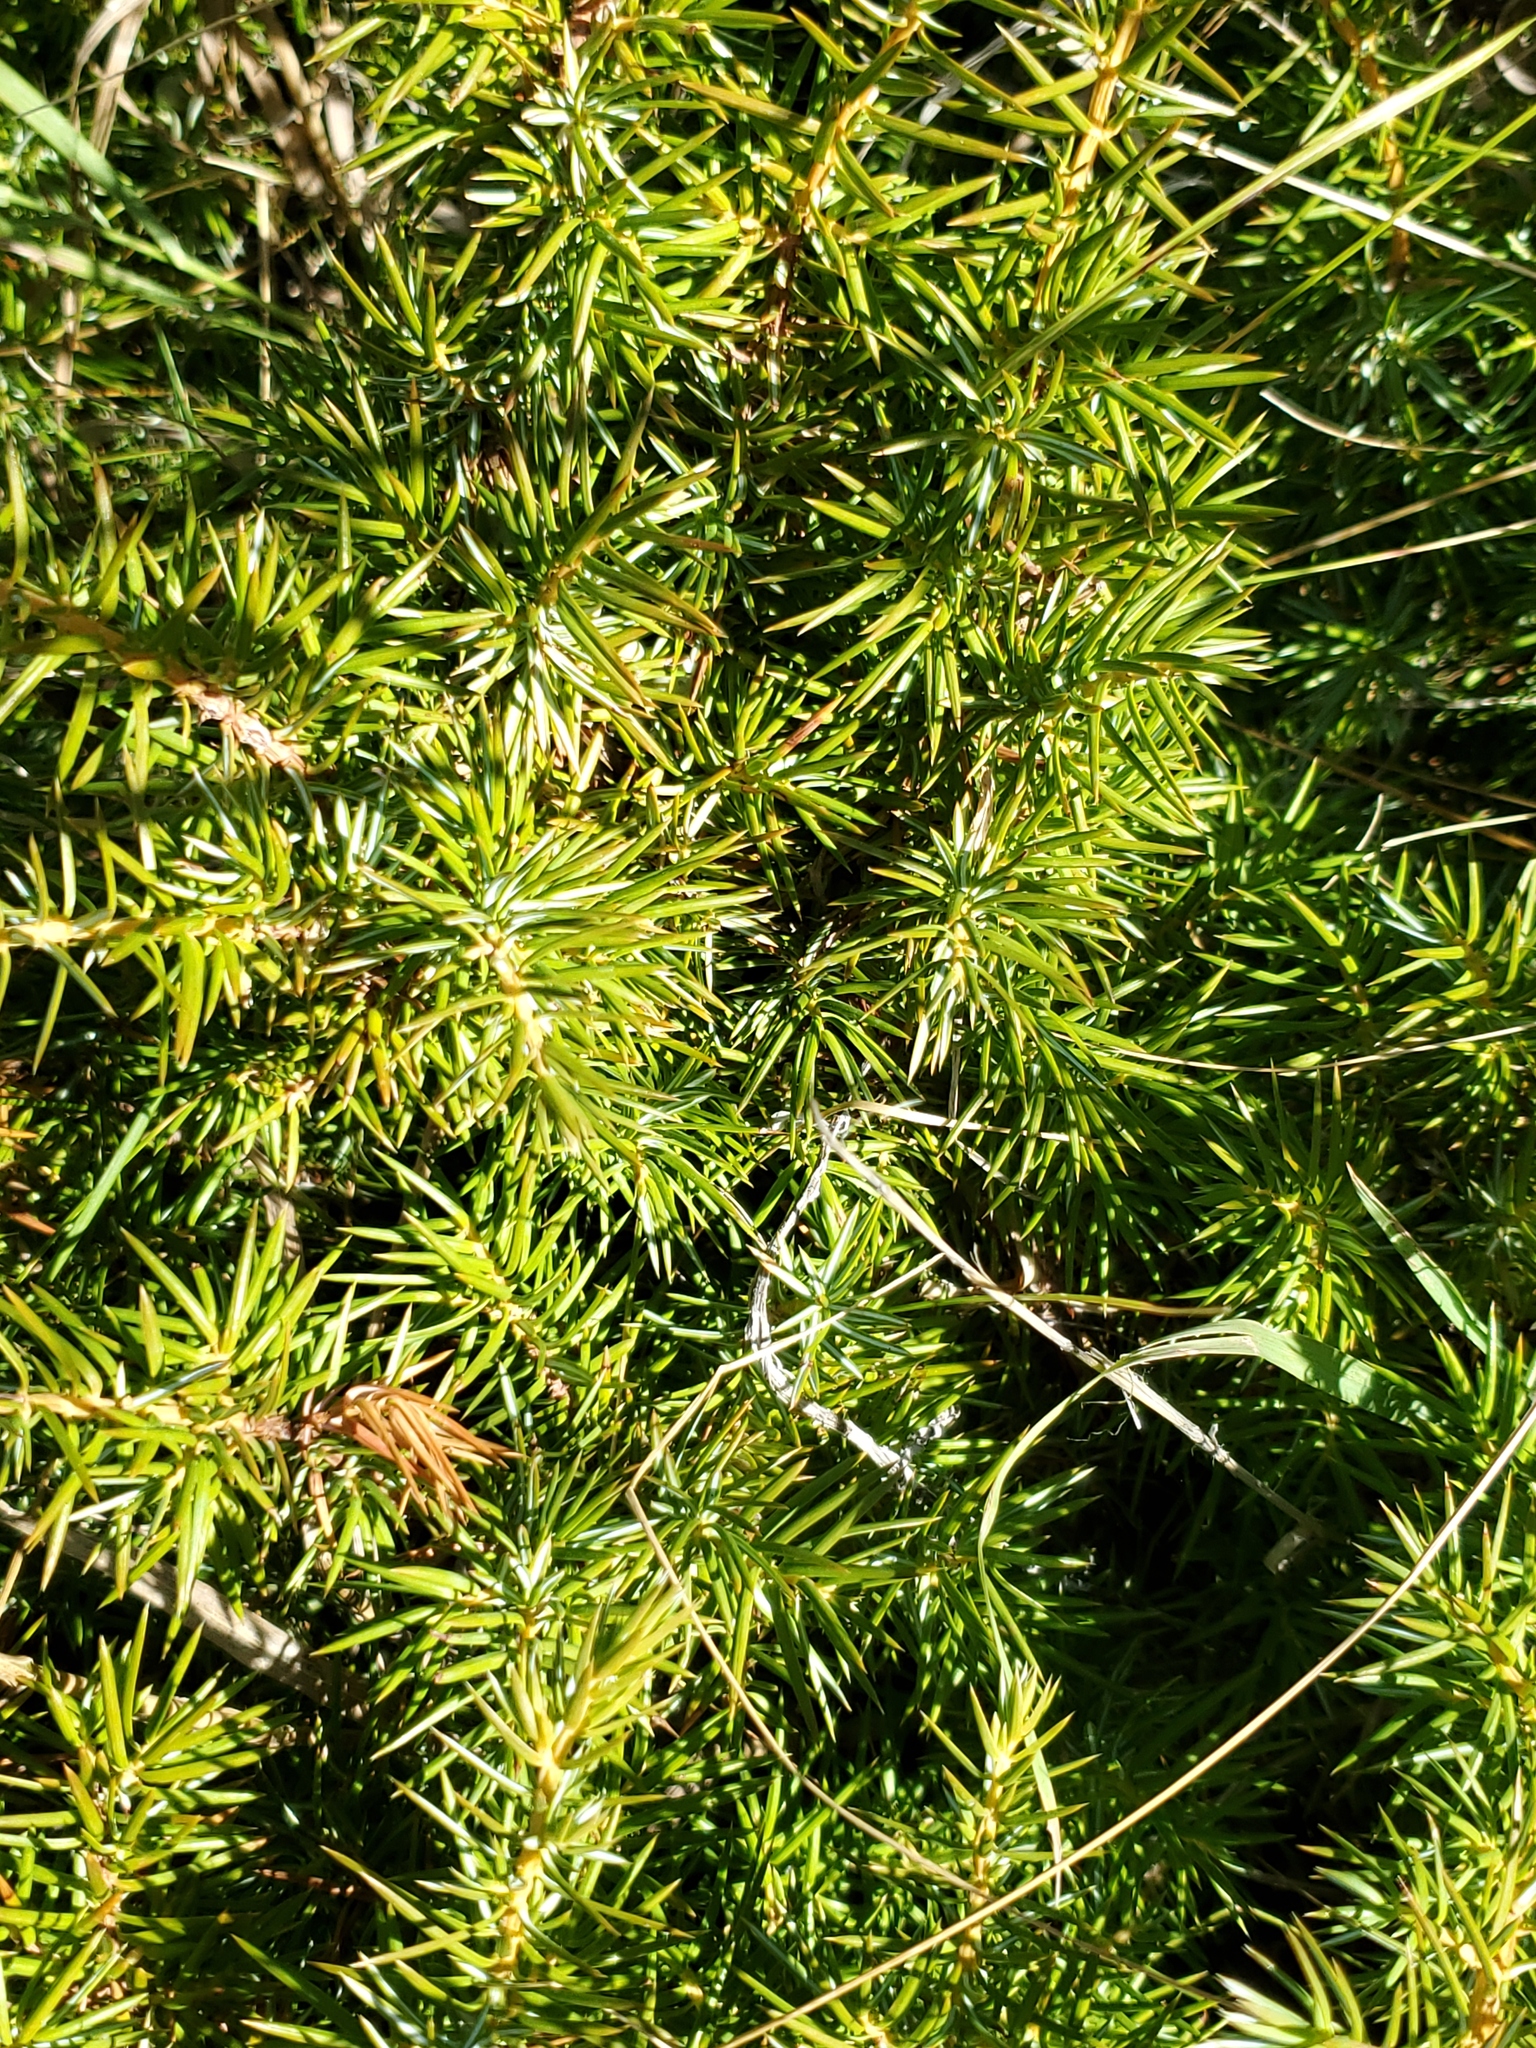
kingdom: Plantae
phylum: Tracheophyta
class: Pinopsida
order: Pinales
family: Cupressaceae
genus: Juniperus
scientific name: Juniperus communis
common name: Common juniper
